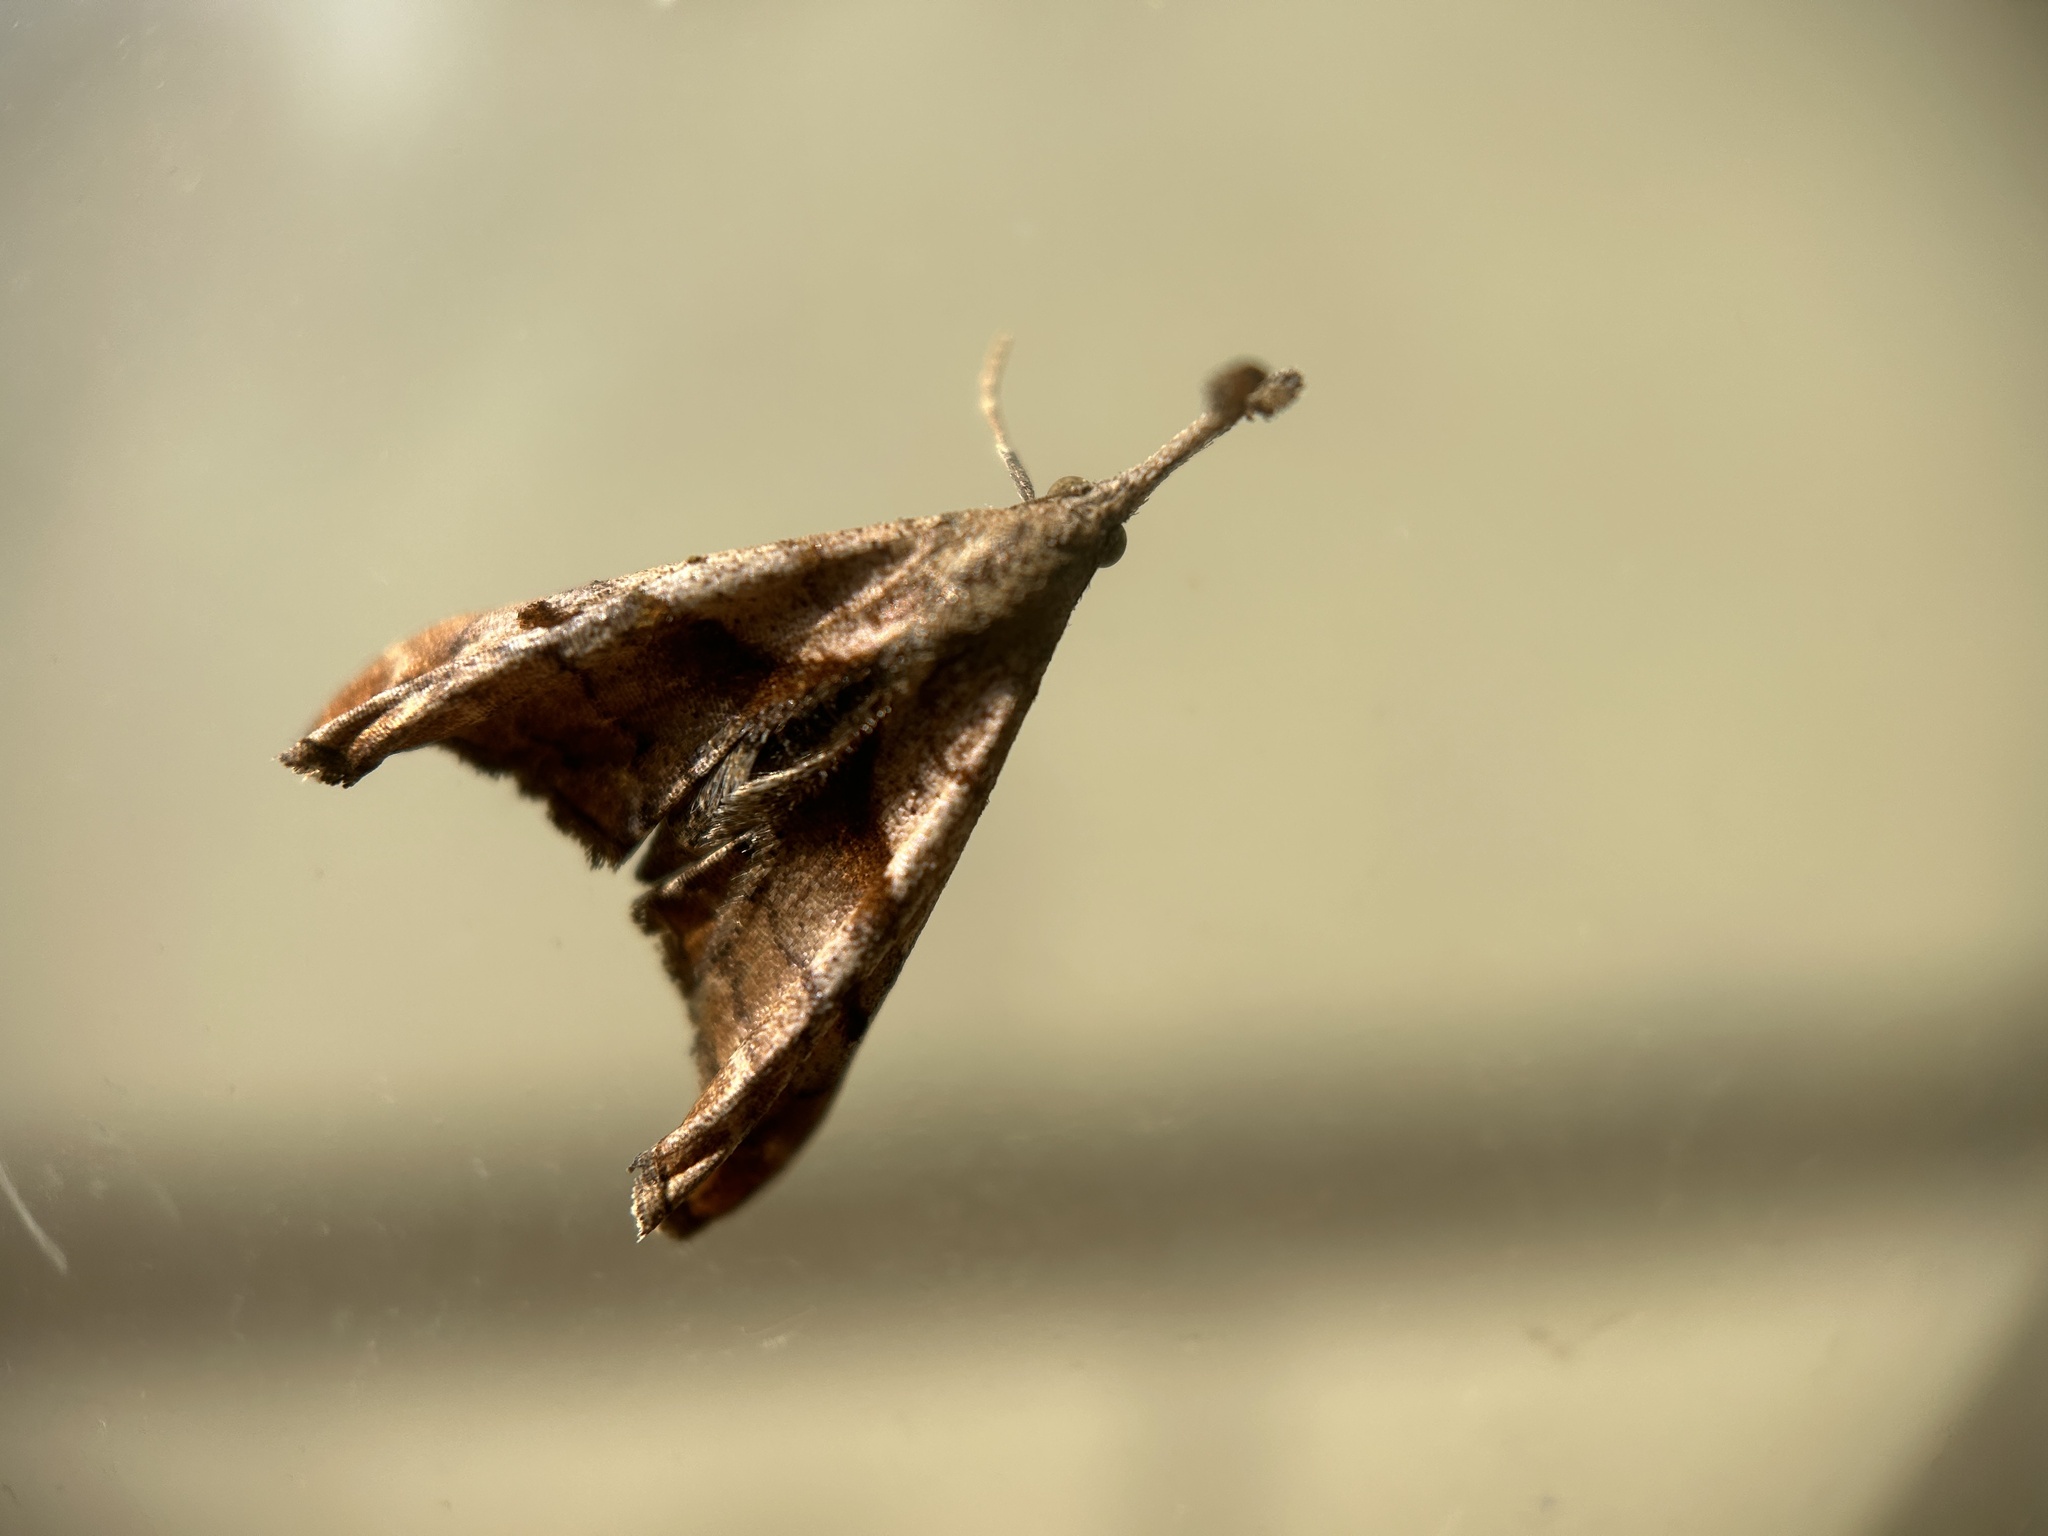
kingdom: Animalia
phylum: Arthropoda
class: Insecta
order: Lepidoptera
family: Erebidae
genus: Palthis
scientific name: Palthis angulalis
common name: Dark-spotted palthis moth
